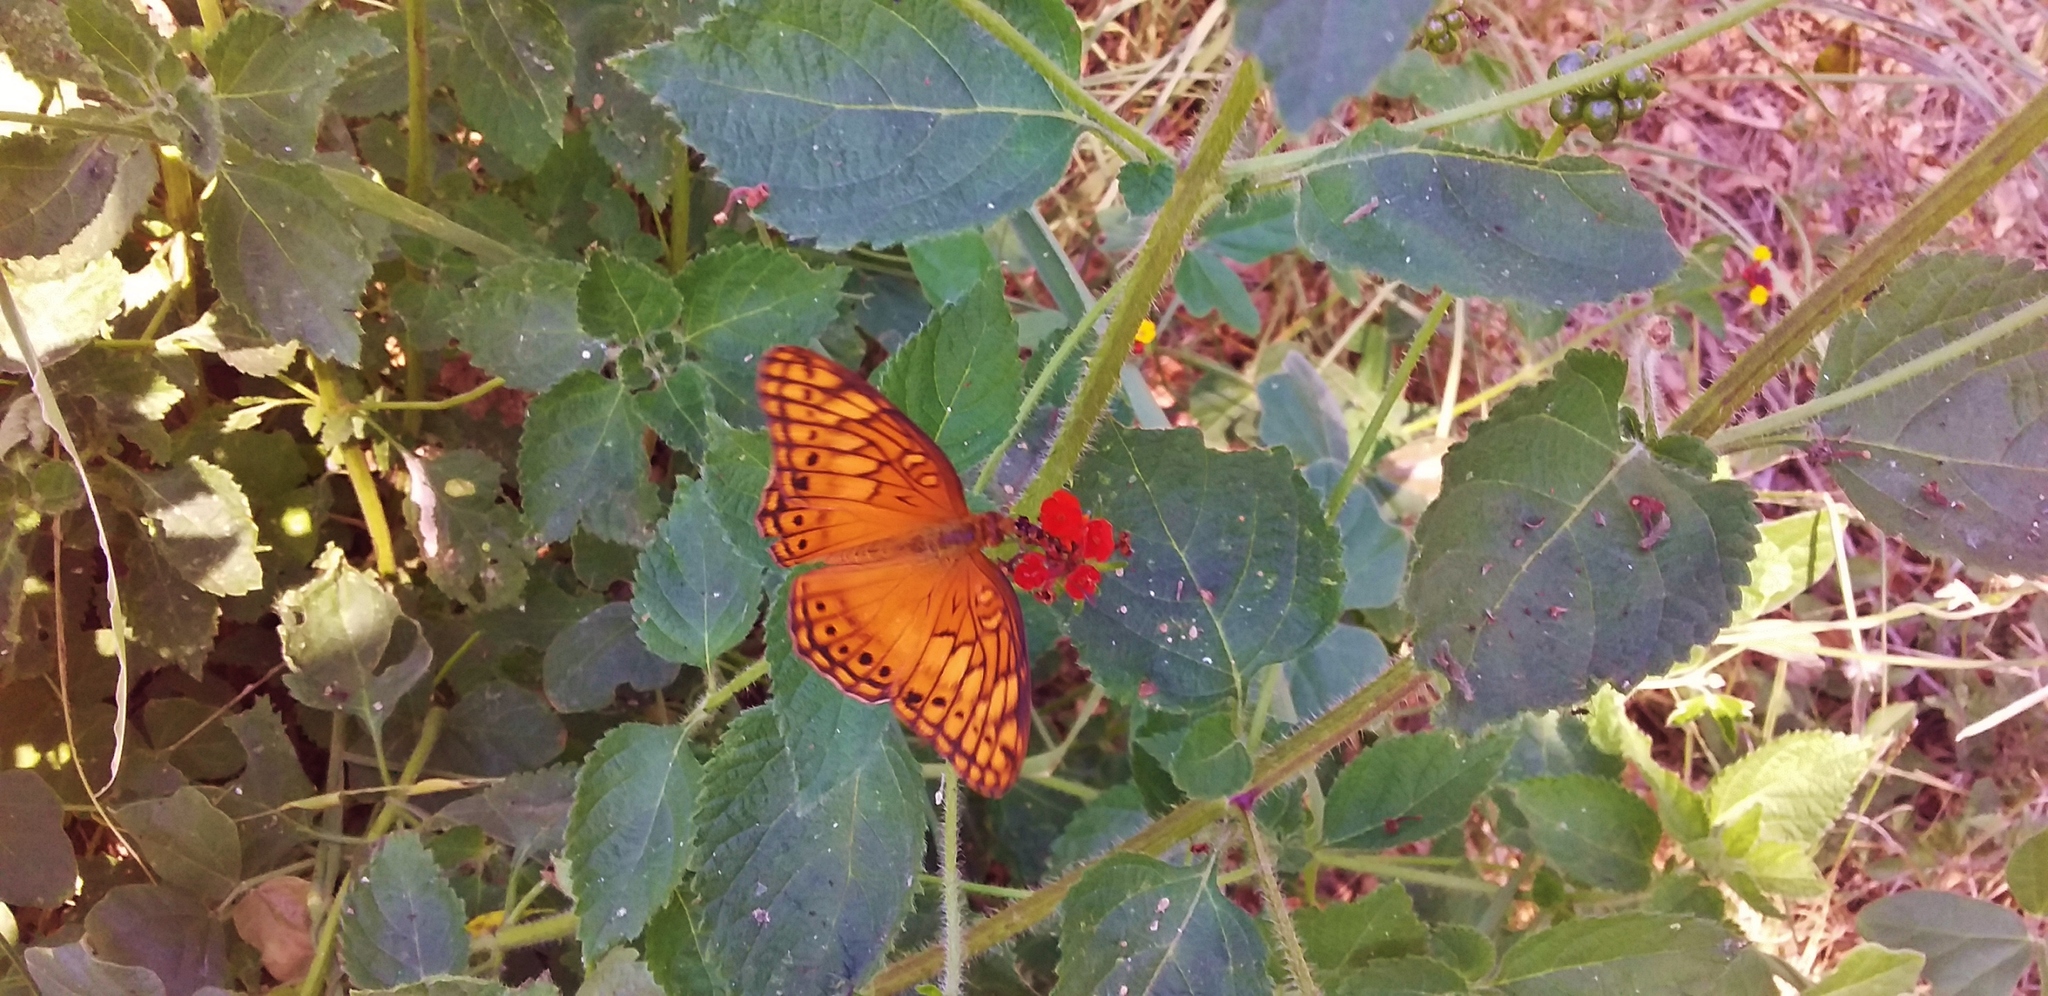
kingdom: Animalia
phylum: Arthropoda
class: Insecta
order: Lepidoptera
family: Nymphalidae
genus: Euptoieta
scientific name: Euptoieta hegesia
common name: Mexican fritillary
